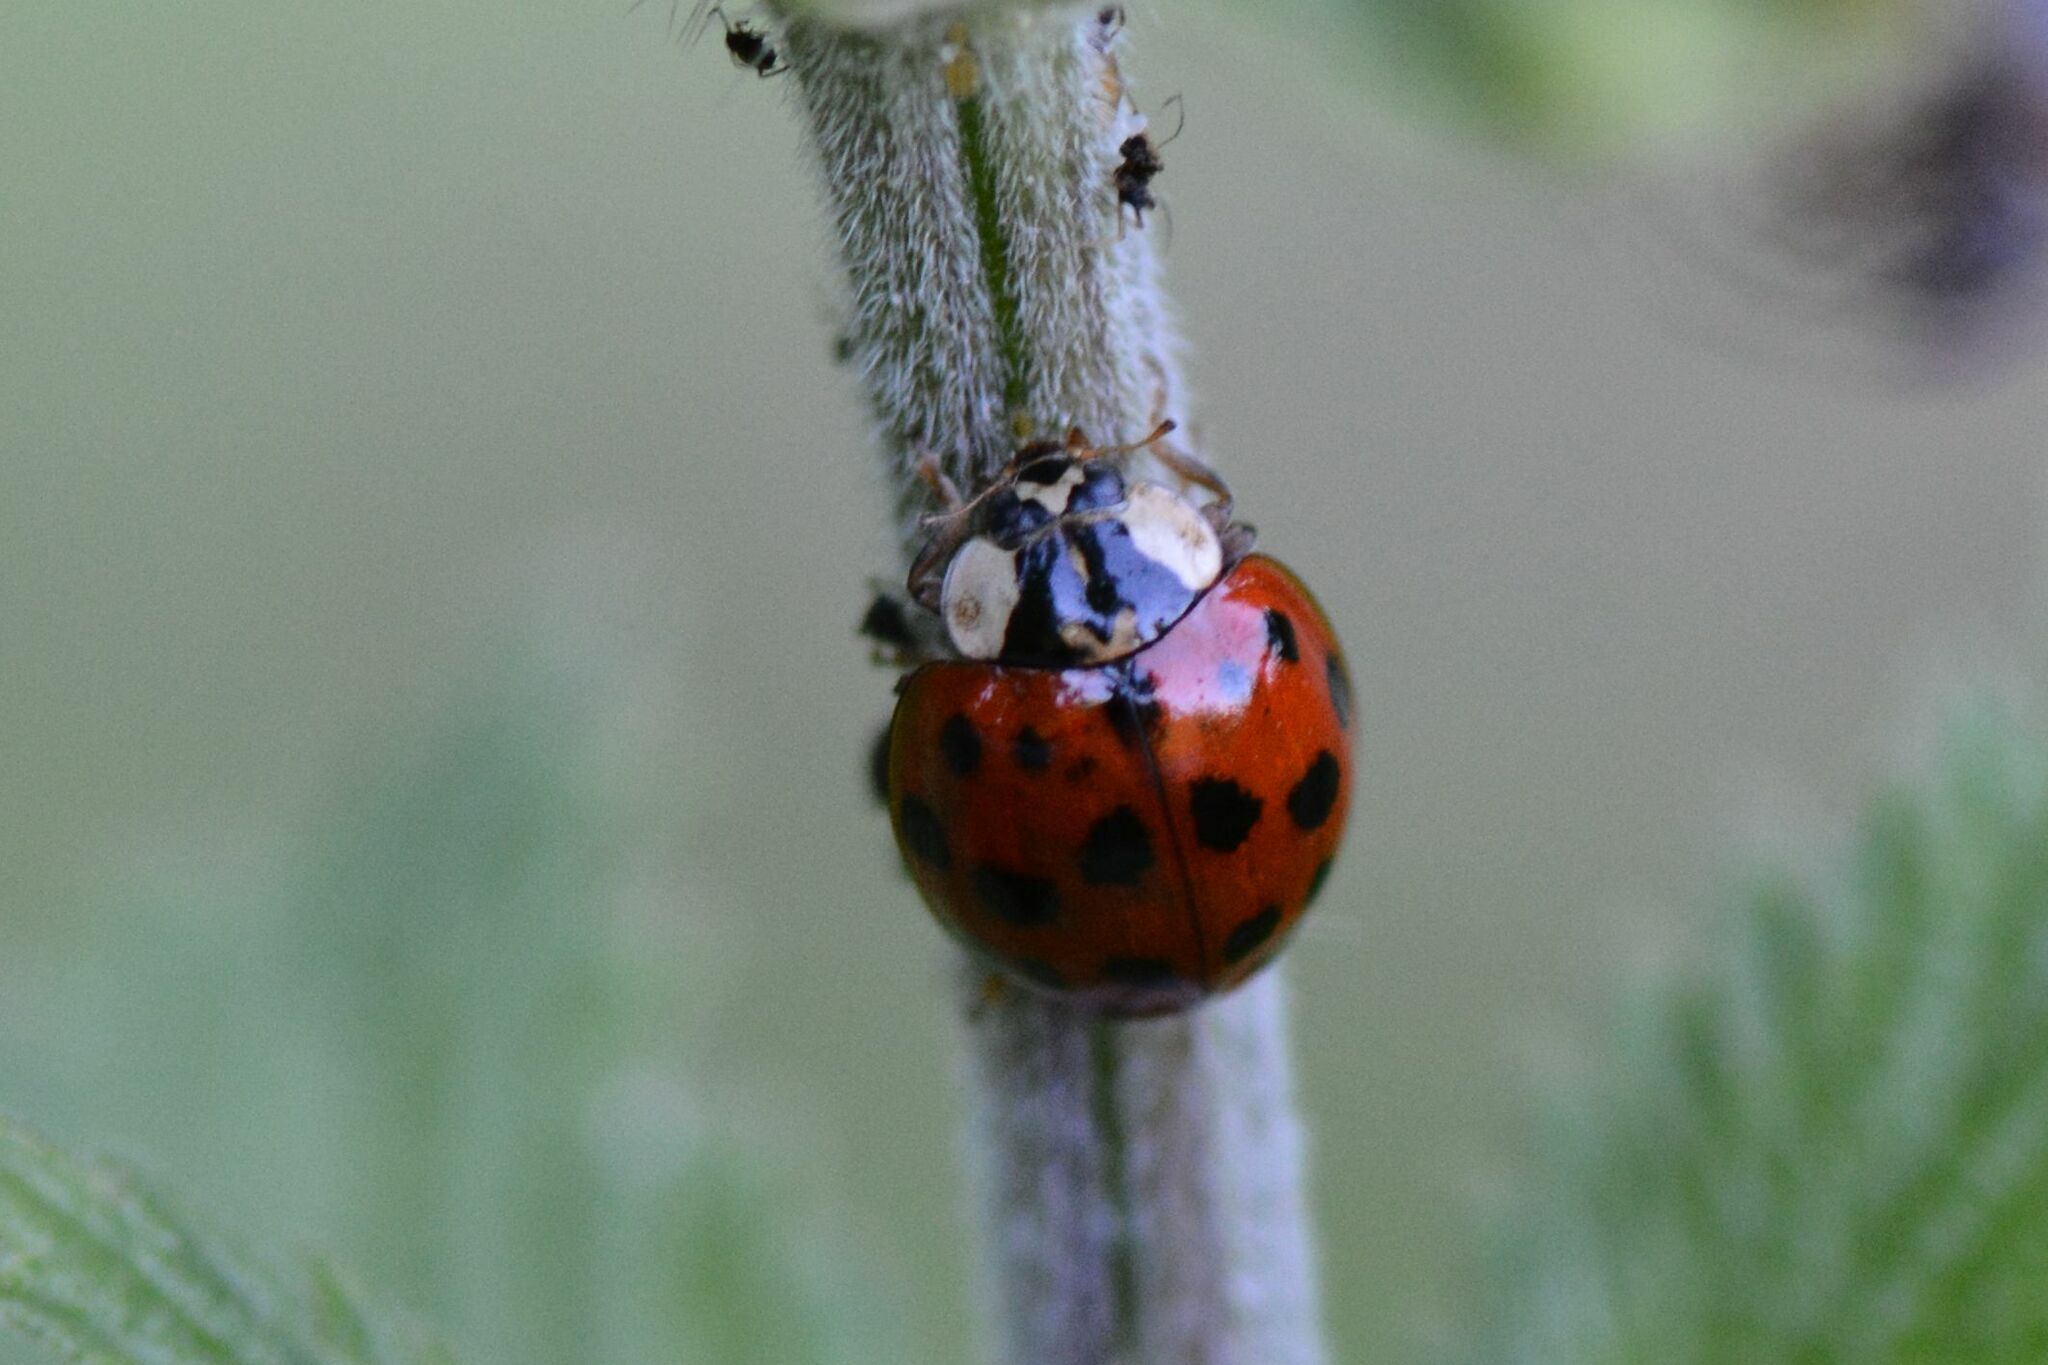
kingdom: Animalia
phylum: Arthropoda
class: Insecta
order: Coleoptera
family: Coccinellidae
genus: Harmonia
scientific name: Harmonia axyridis
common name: Harlequin ladybird
